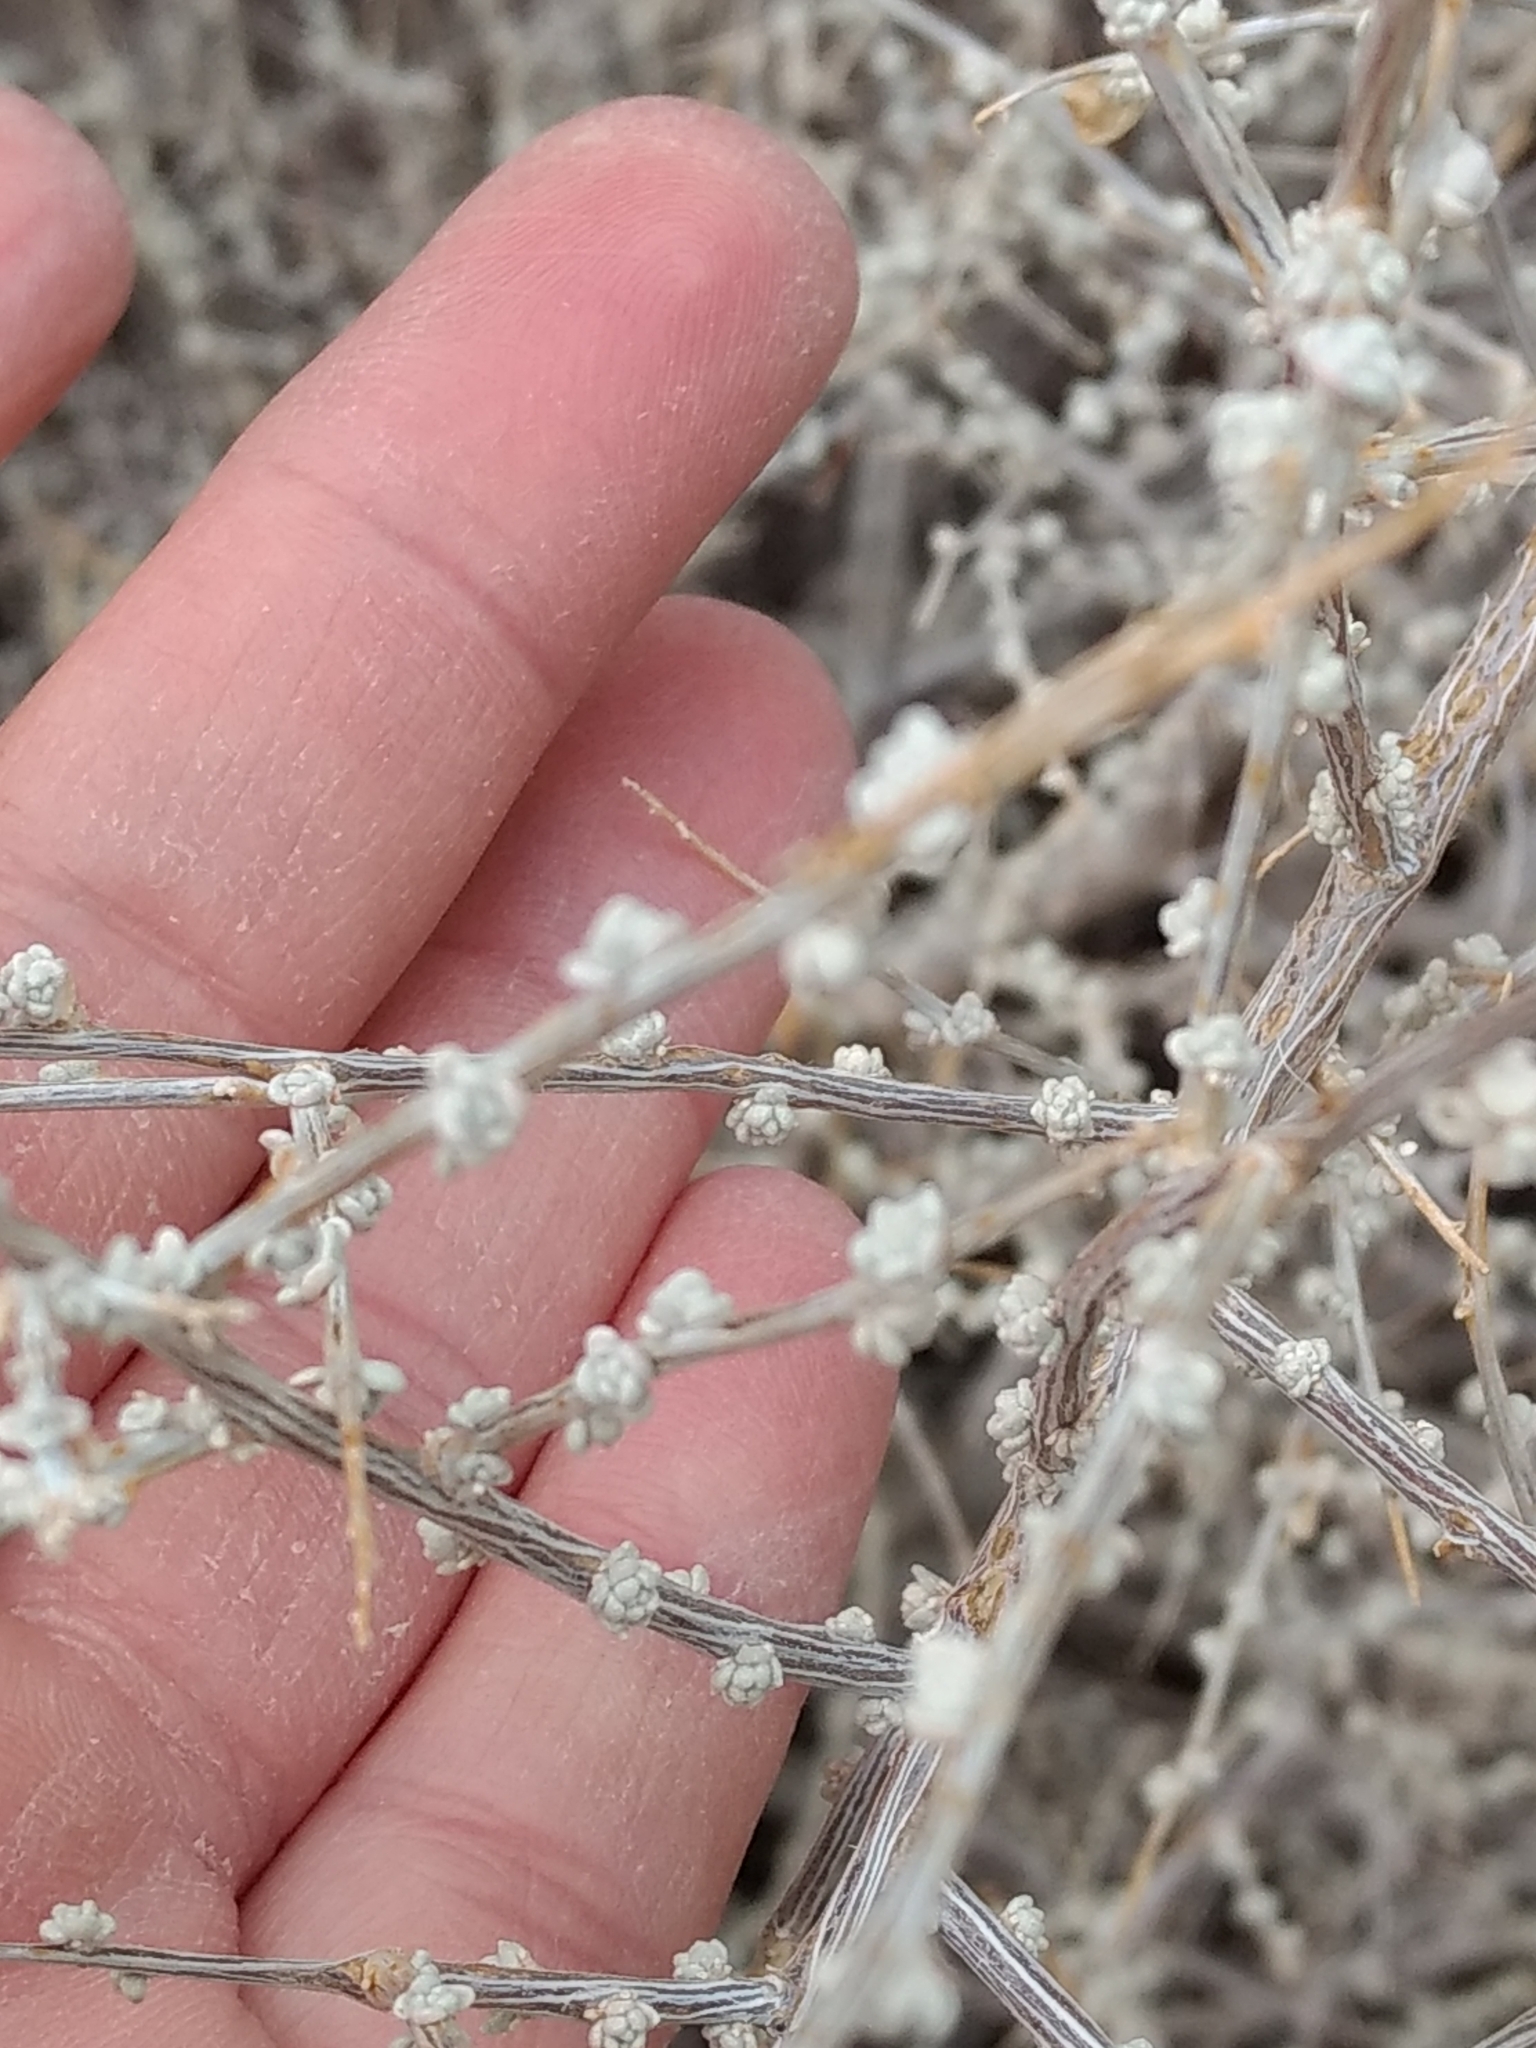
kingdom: Plantae
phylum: Tracheophyta
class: Magnoliopsida
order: Caryophyllales
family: Amaranthaceae
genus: Grayia
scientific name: Grayia spinosa
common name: Spiny hopsage
